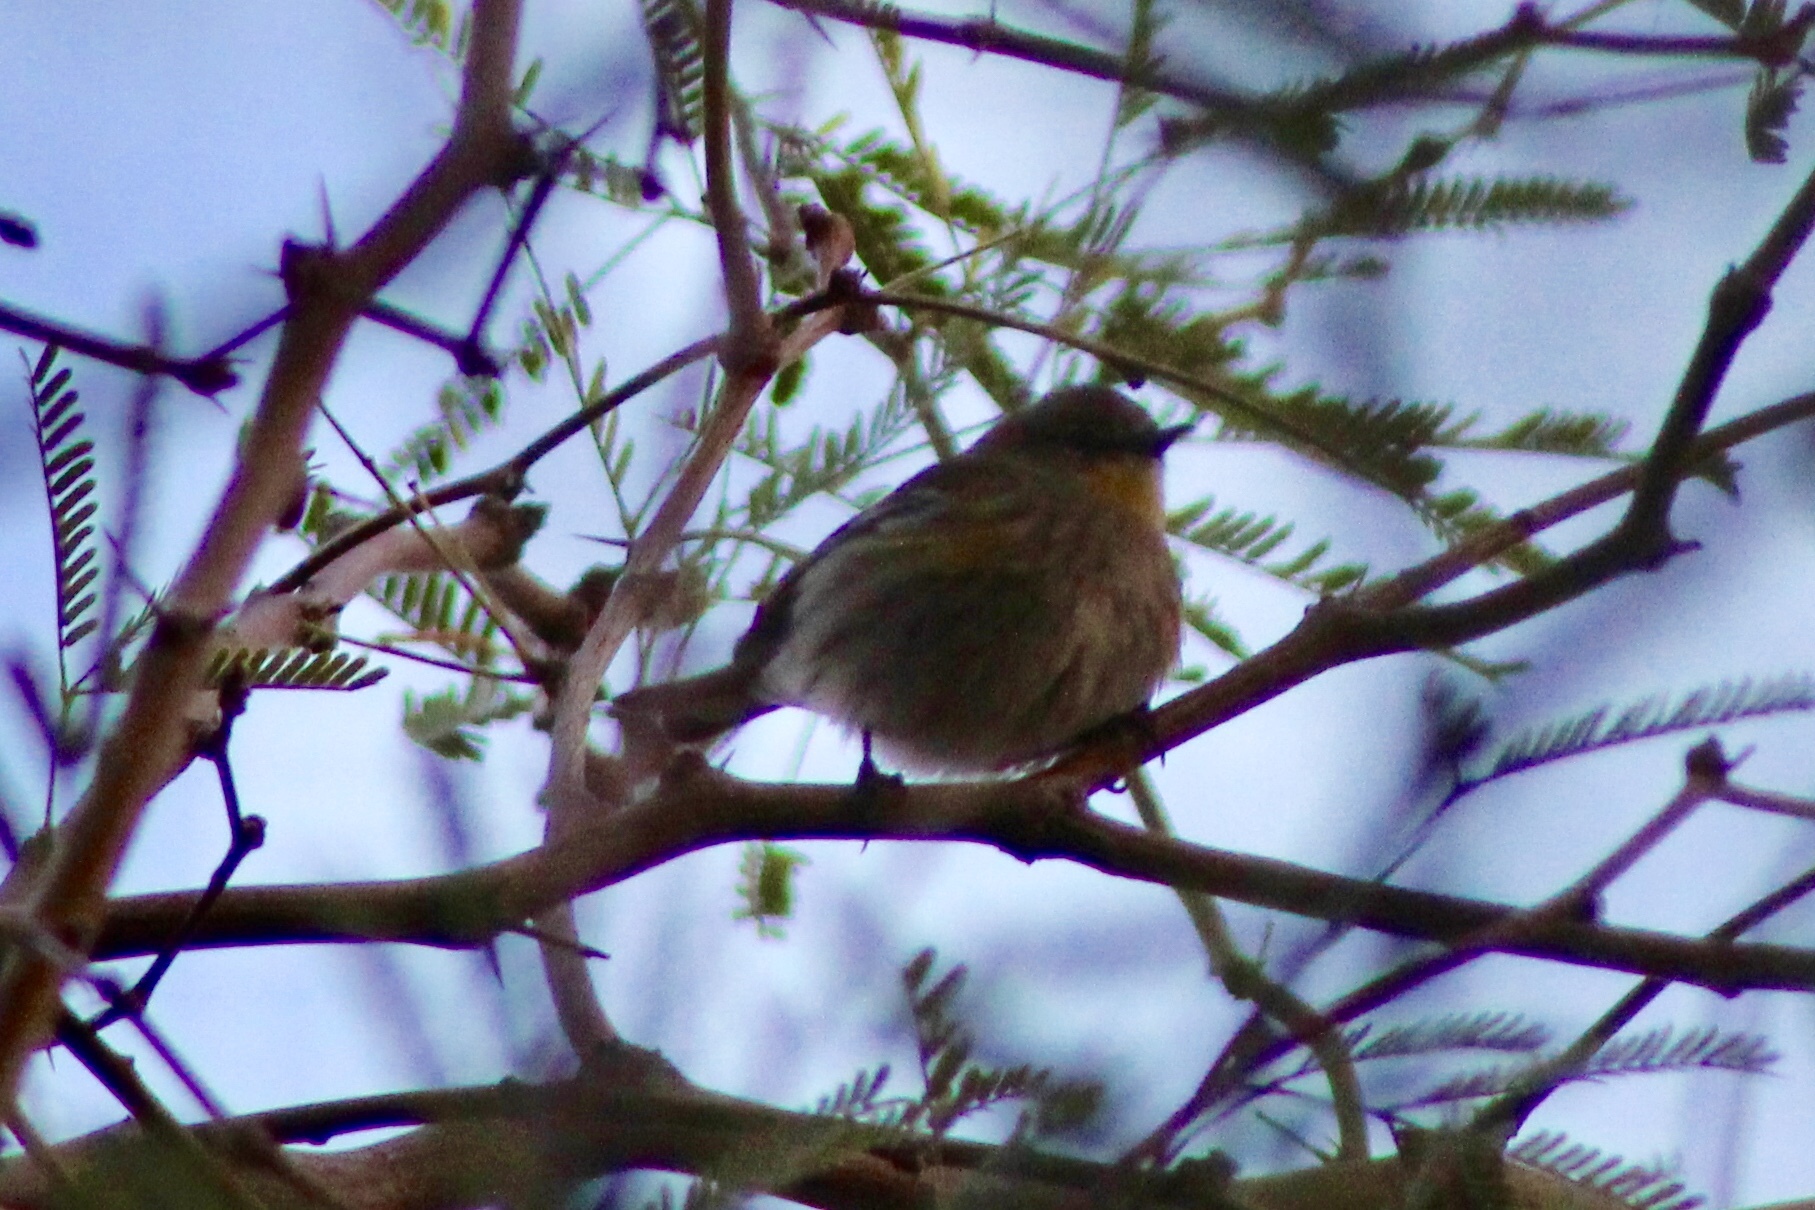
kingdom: Animalia
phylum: Chordata
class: Aves
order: Passeriformes
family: Parulidae
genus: Setophaga
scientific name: Setophaga auduboni
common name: Audubon's warbler
